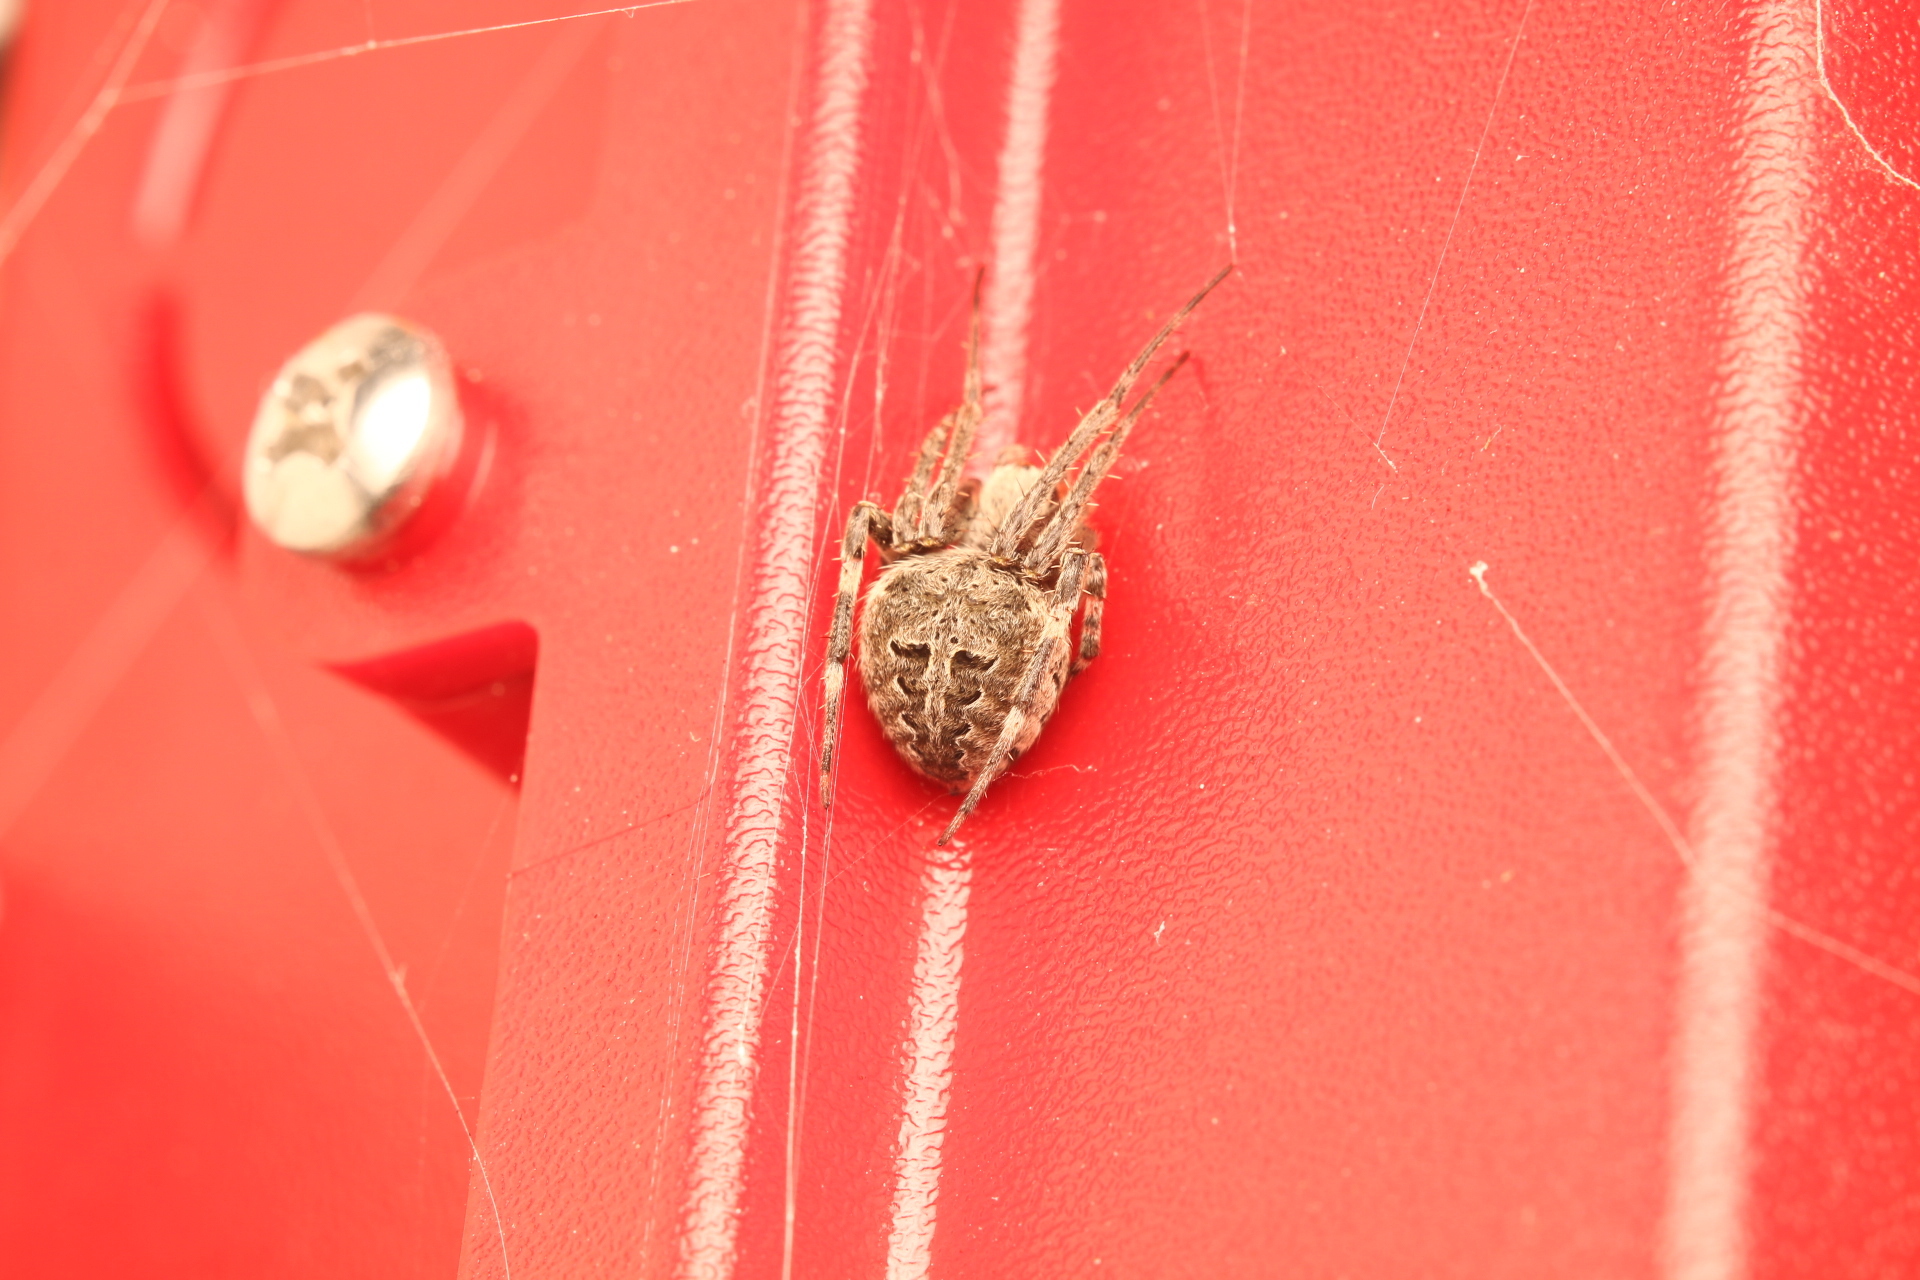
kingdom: Animalia
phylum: Arthropoda
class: Arachnida
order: Araneae
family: Araneidae
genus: Neoscona
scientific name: Neoscona nautica
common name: Orb weavers
